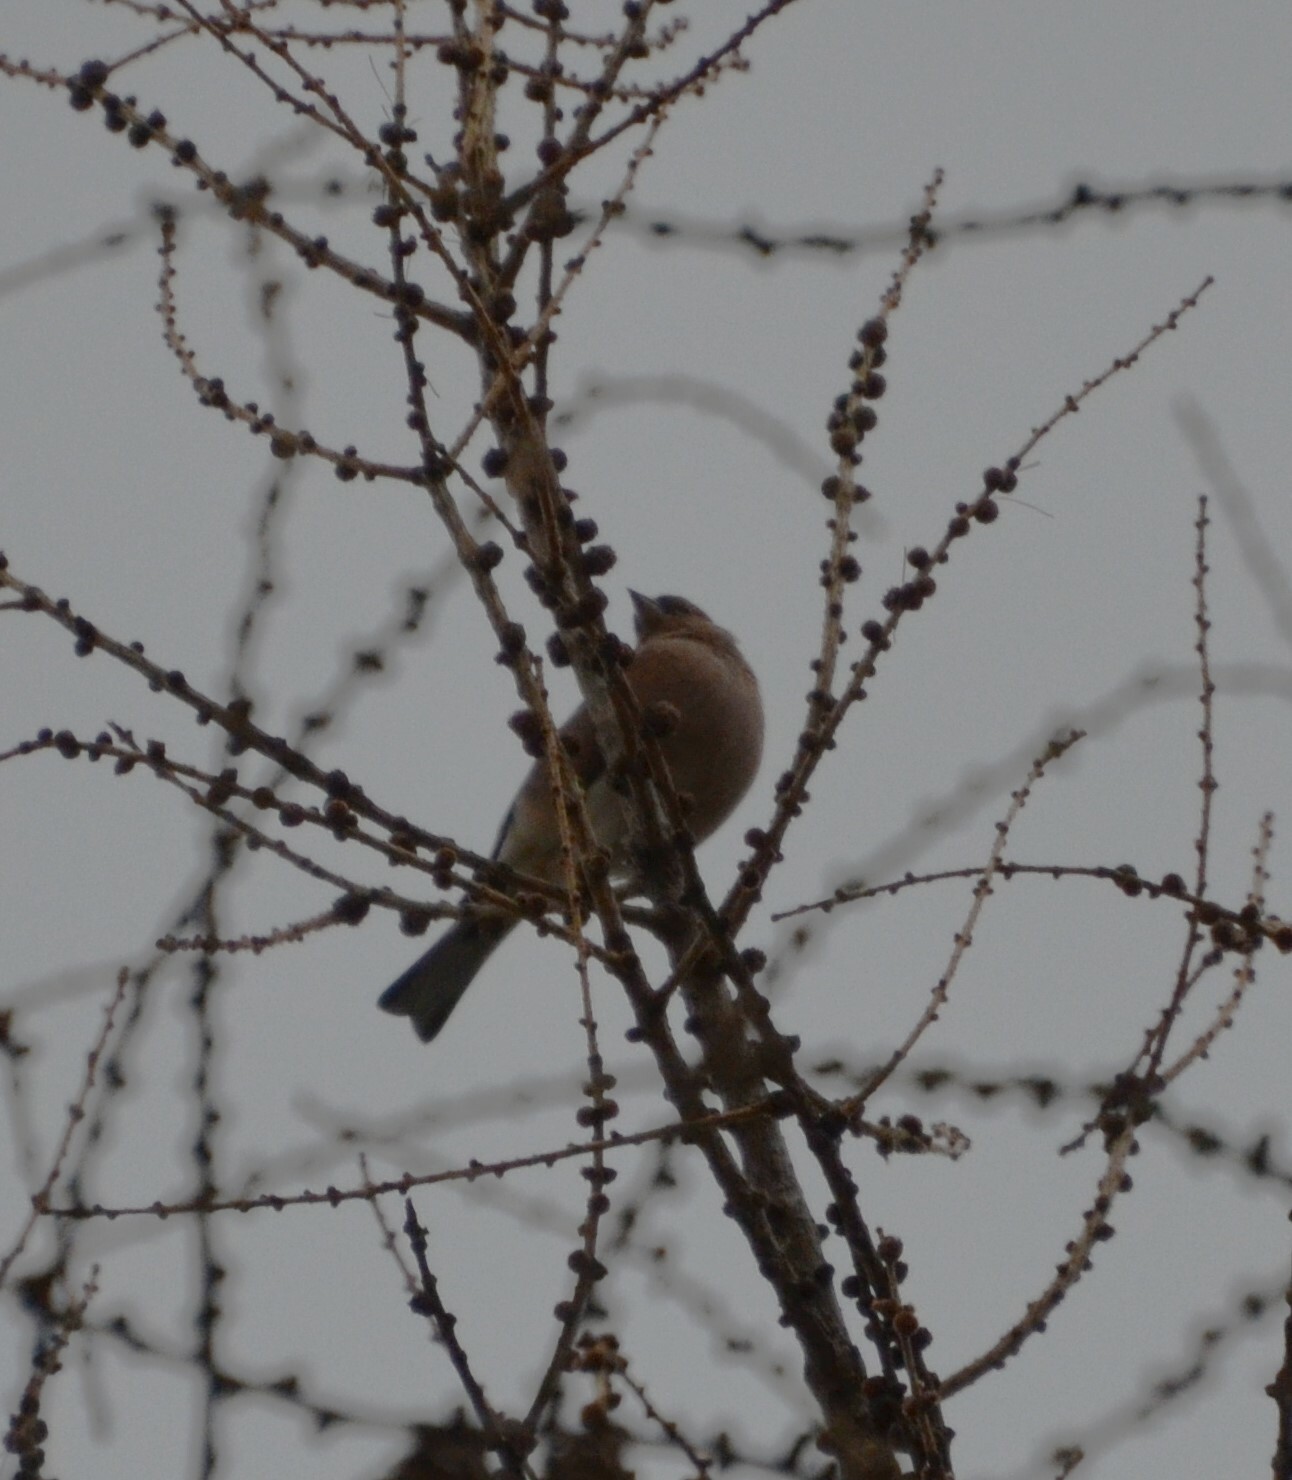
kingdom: Animalia
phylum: Chordata
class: Aves
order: Passeriformes
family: Fringillidae
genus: Fringilla
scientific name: Fringilla coelebs
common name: Common chaffinch
